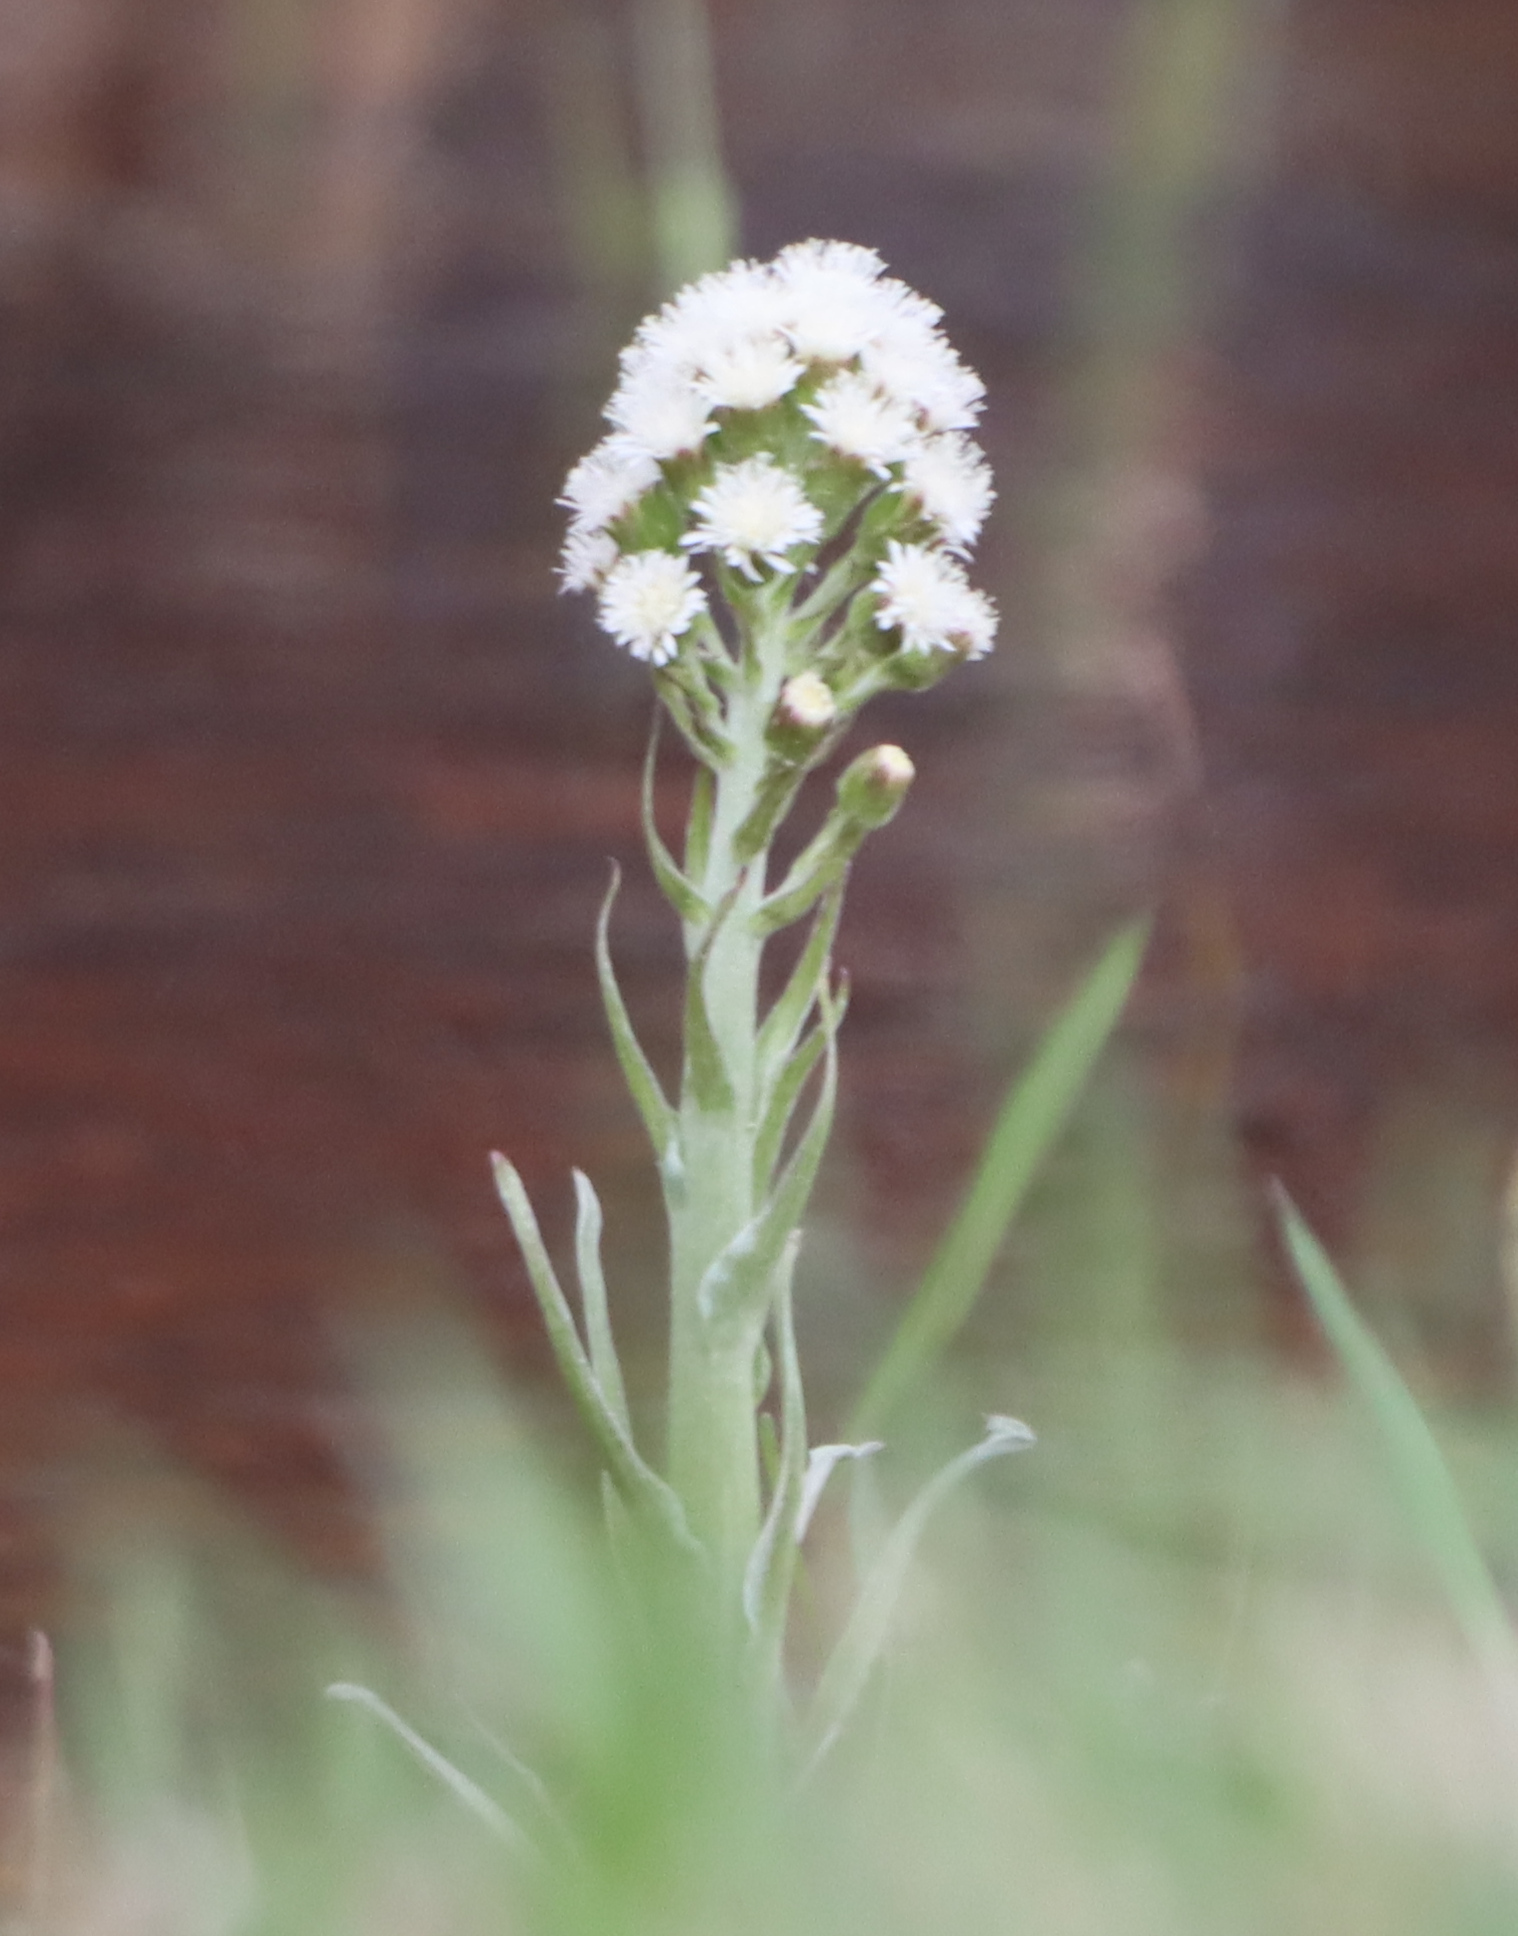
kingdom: Plantae
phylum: Tracheophyta
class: Magnoliopsida
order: Asterales
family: Asteraceae
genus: Petasites
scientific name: Petasites frigidus
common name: Arctic butterbur
